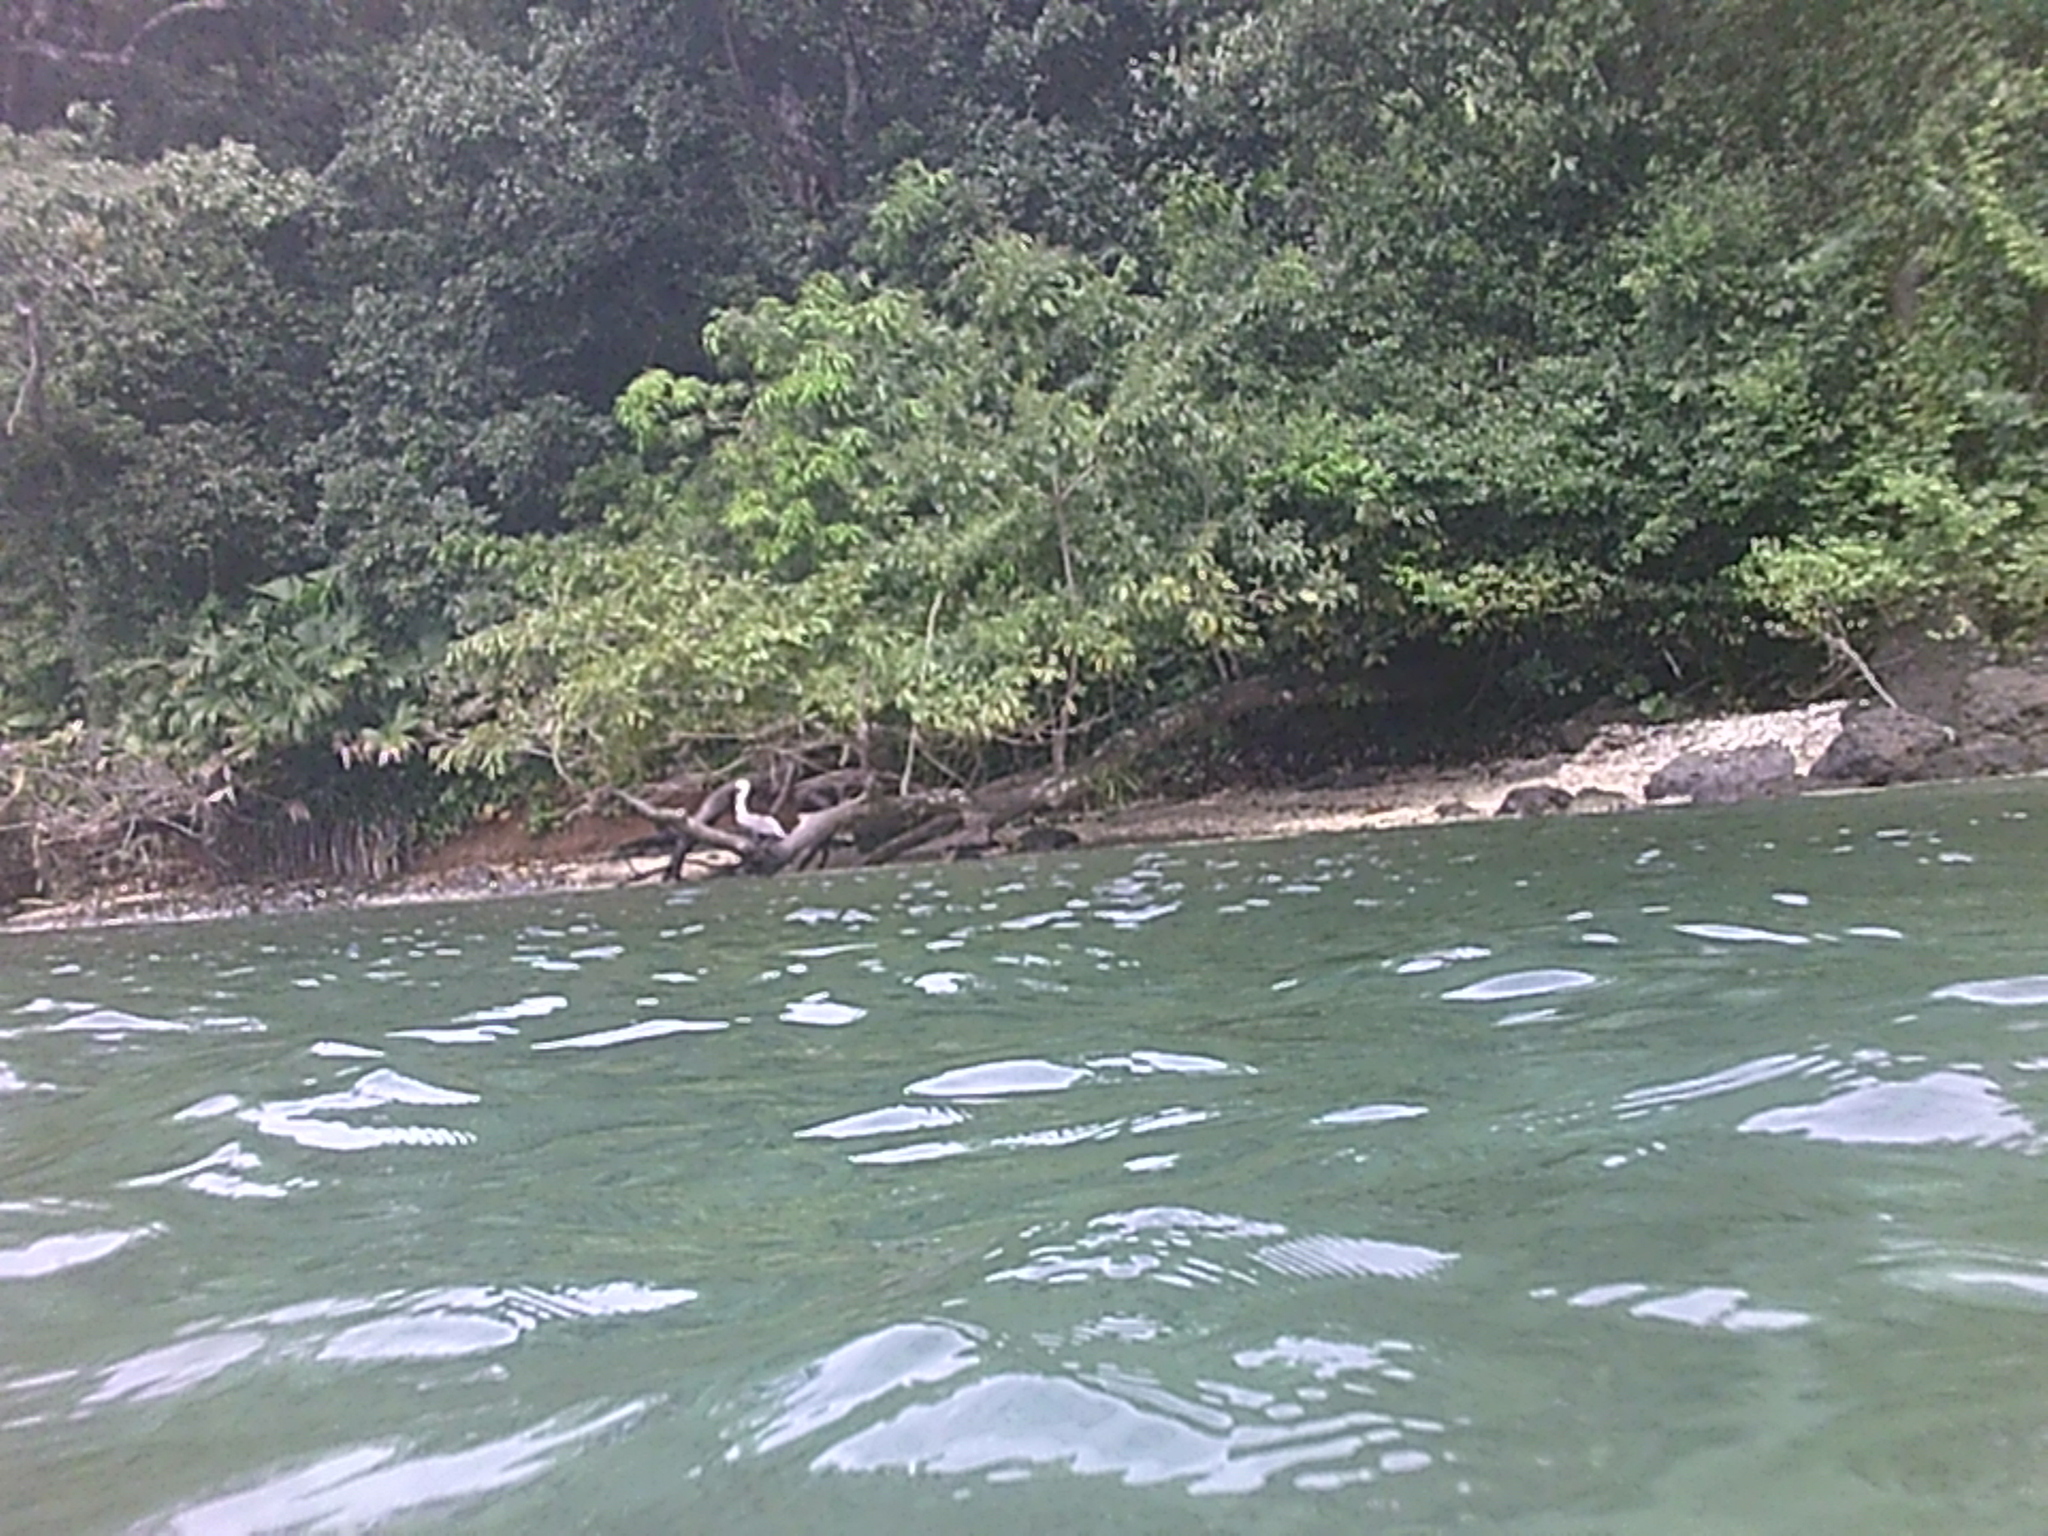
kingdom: Animalia
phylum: Chordata
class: Aves
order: Pelecaniformes
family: Pelecanidae
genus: Pelecanus
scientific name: Pelecanus occidentalis
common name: Brown pelican
